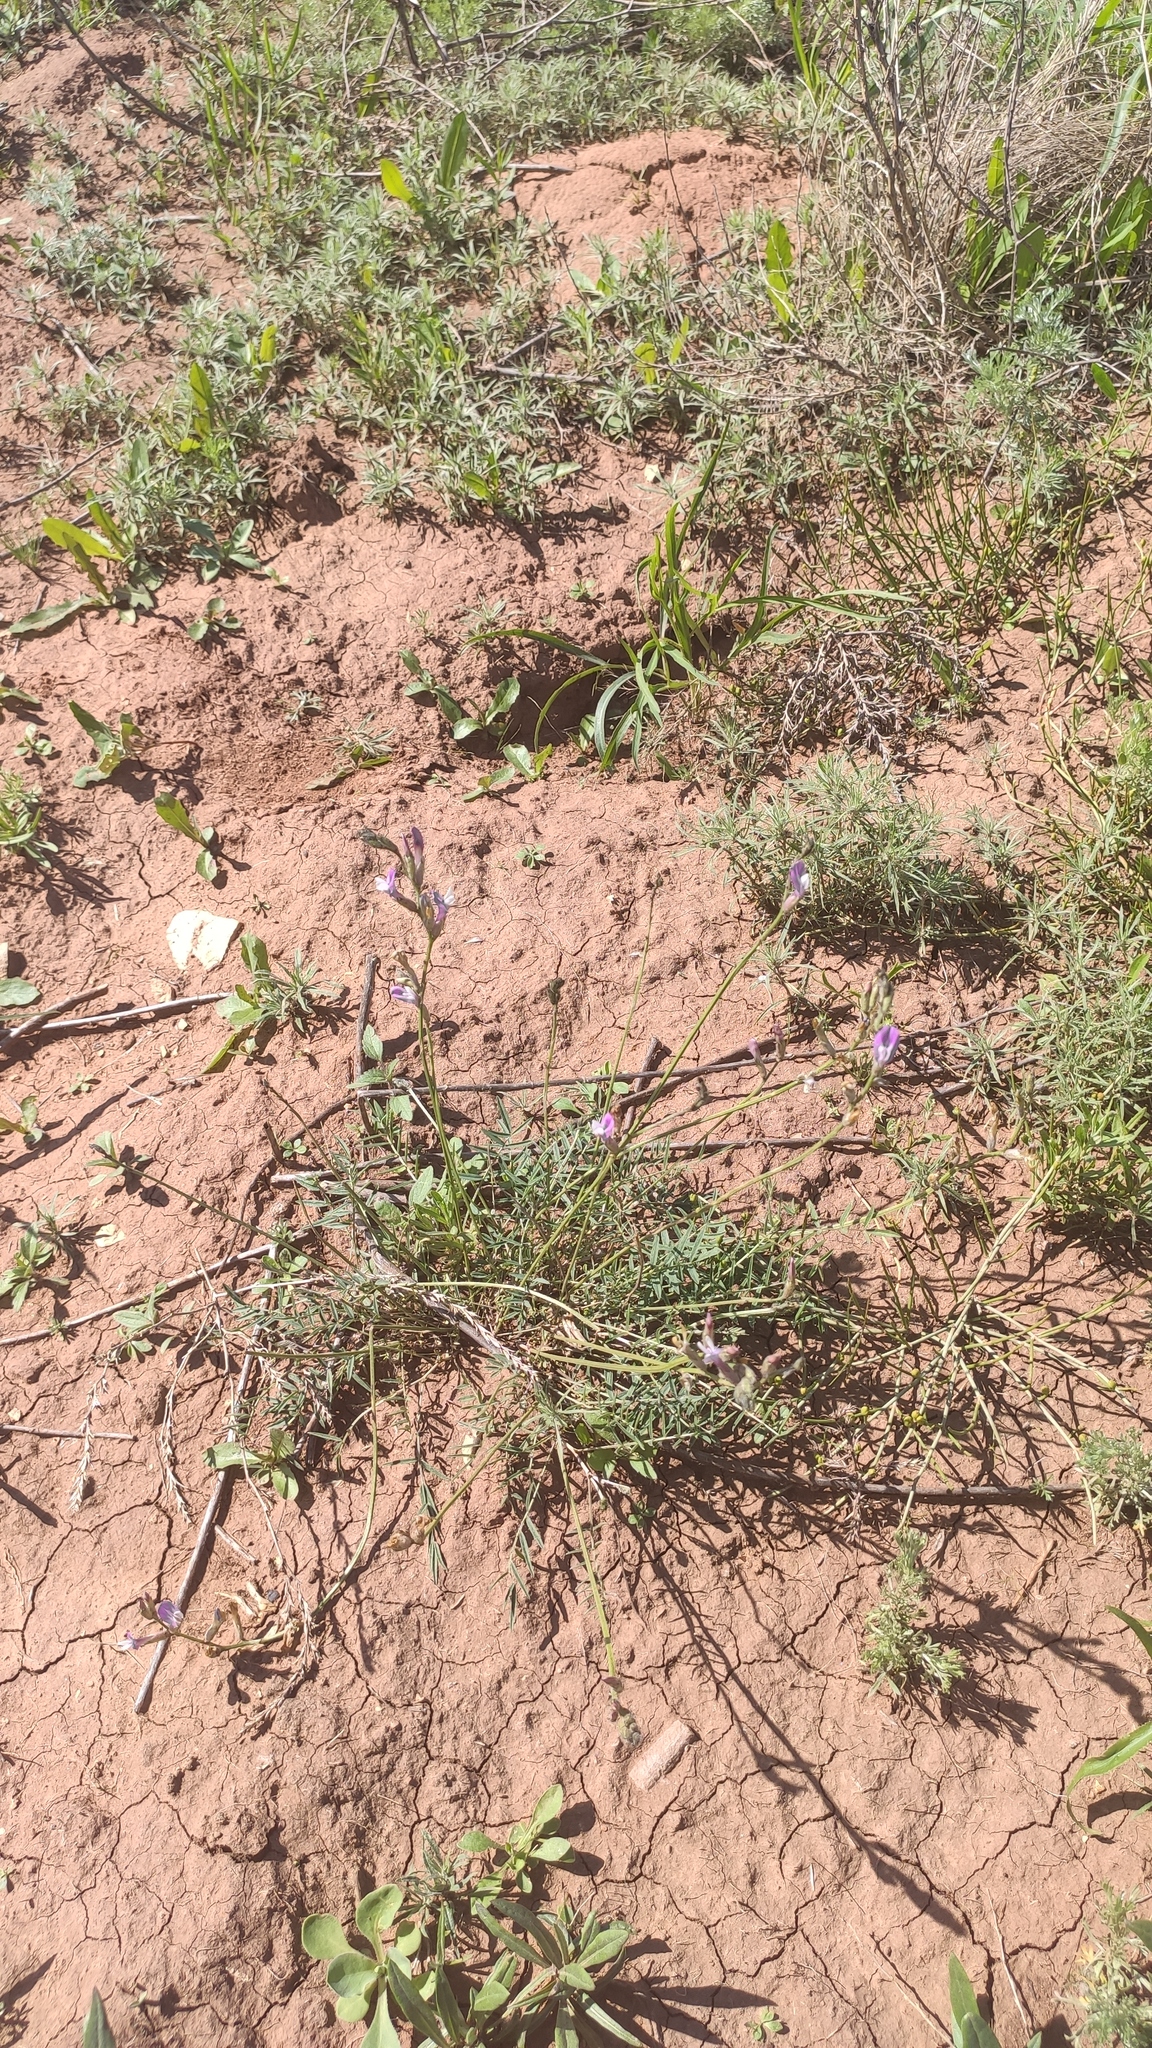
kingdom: Plantae
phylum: Tracheophyta
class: Magnoliopsida
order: Fabales
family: Fabaceae
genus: Oxytropis
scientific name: Oxytropis floribunda
